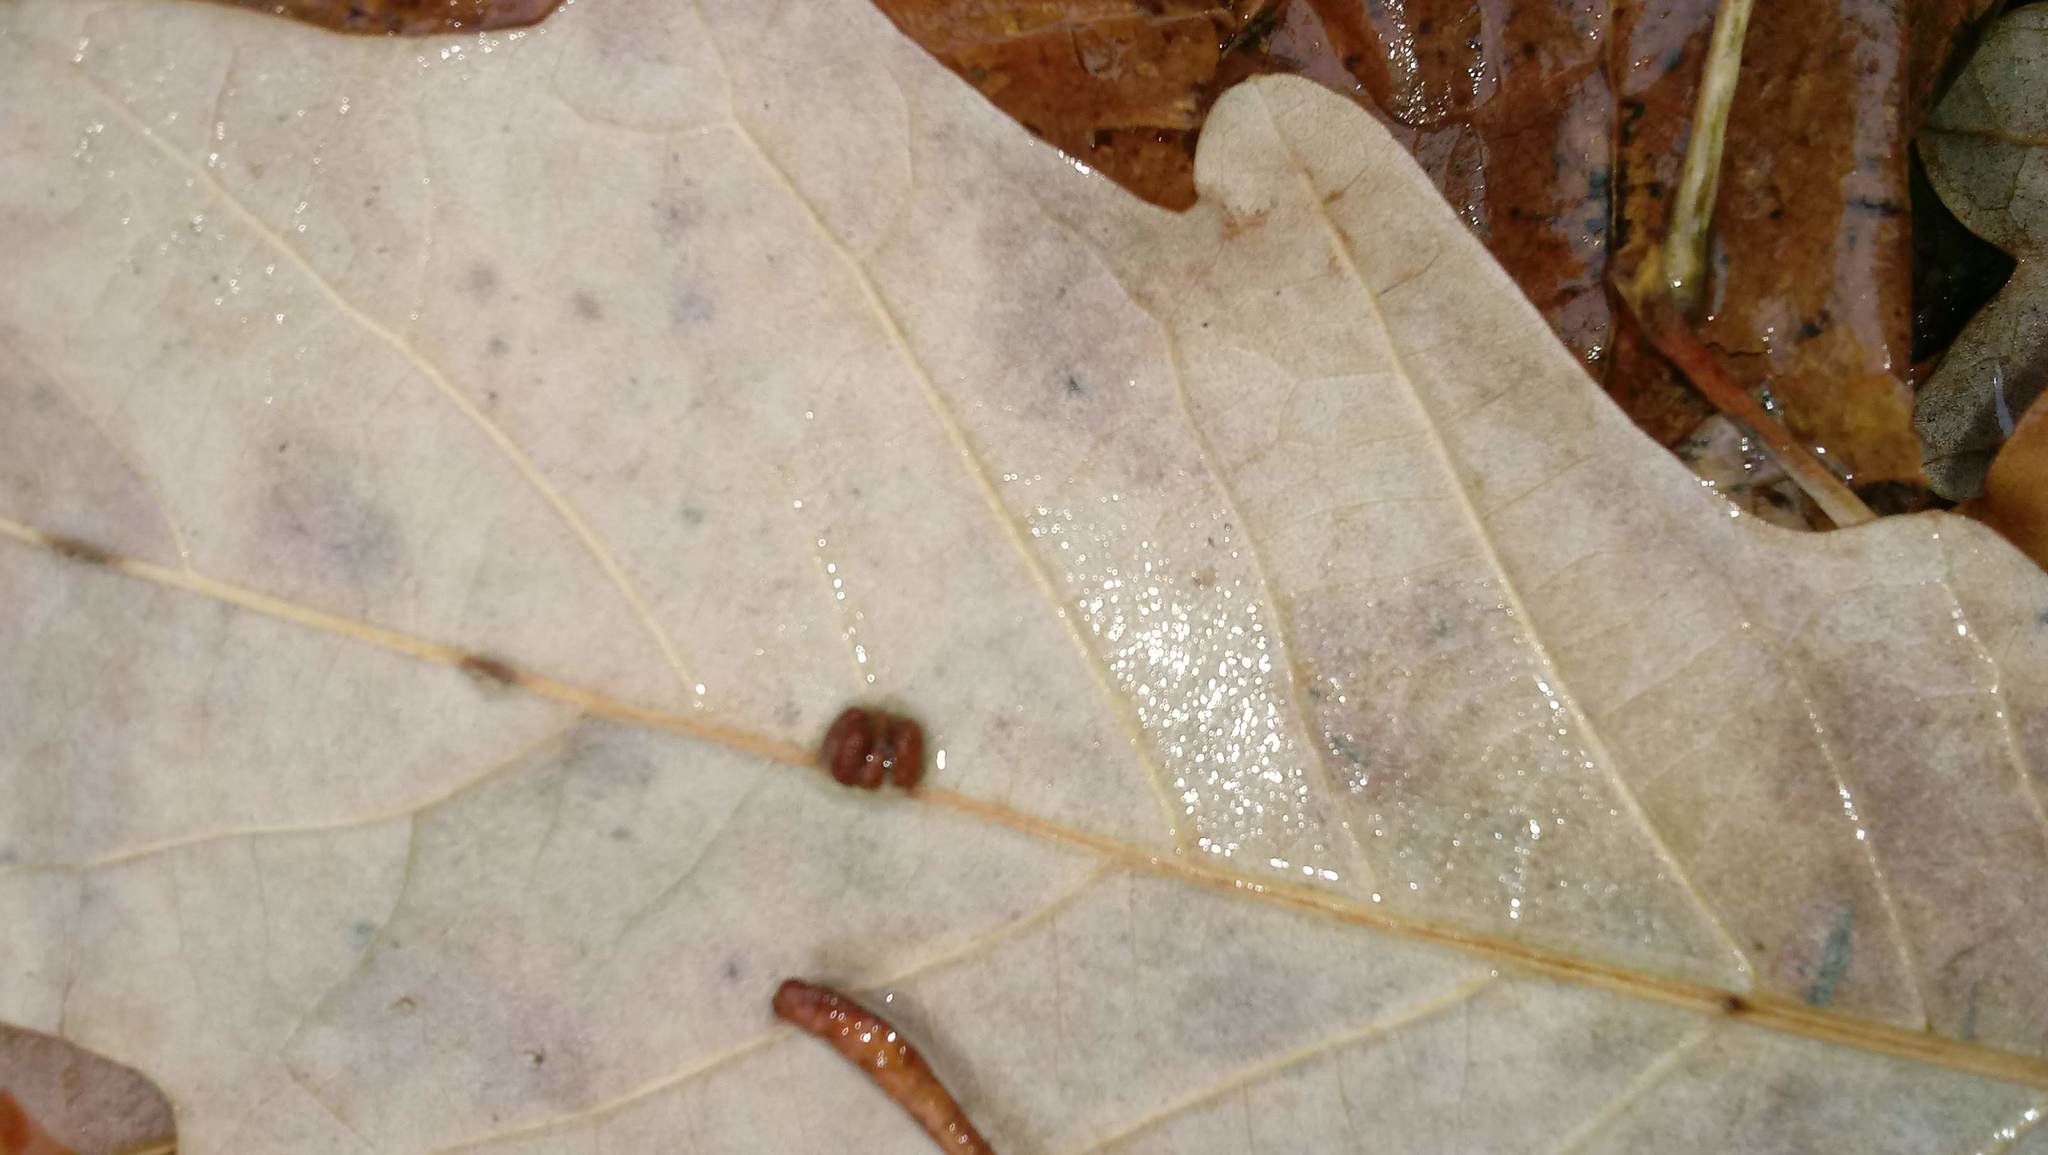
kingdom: Animalia
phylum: Arthropoda
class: Insecta
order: Hymenoptera
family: Cynipidae
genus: Andricus
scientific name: Andricus Druon ignotum
